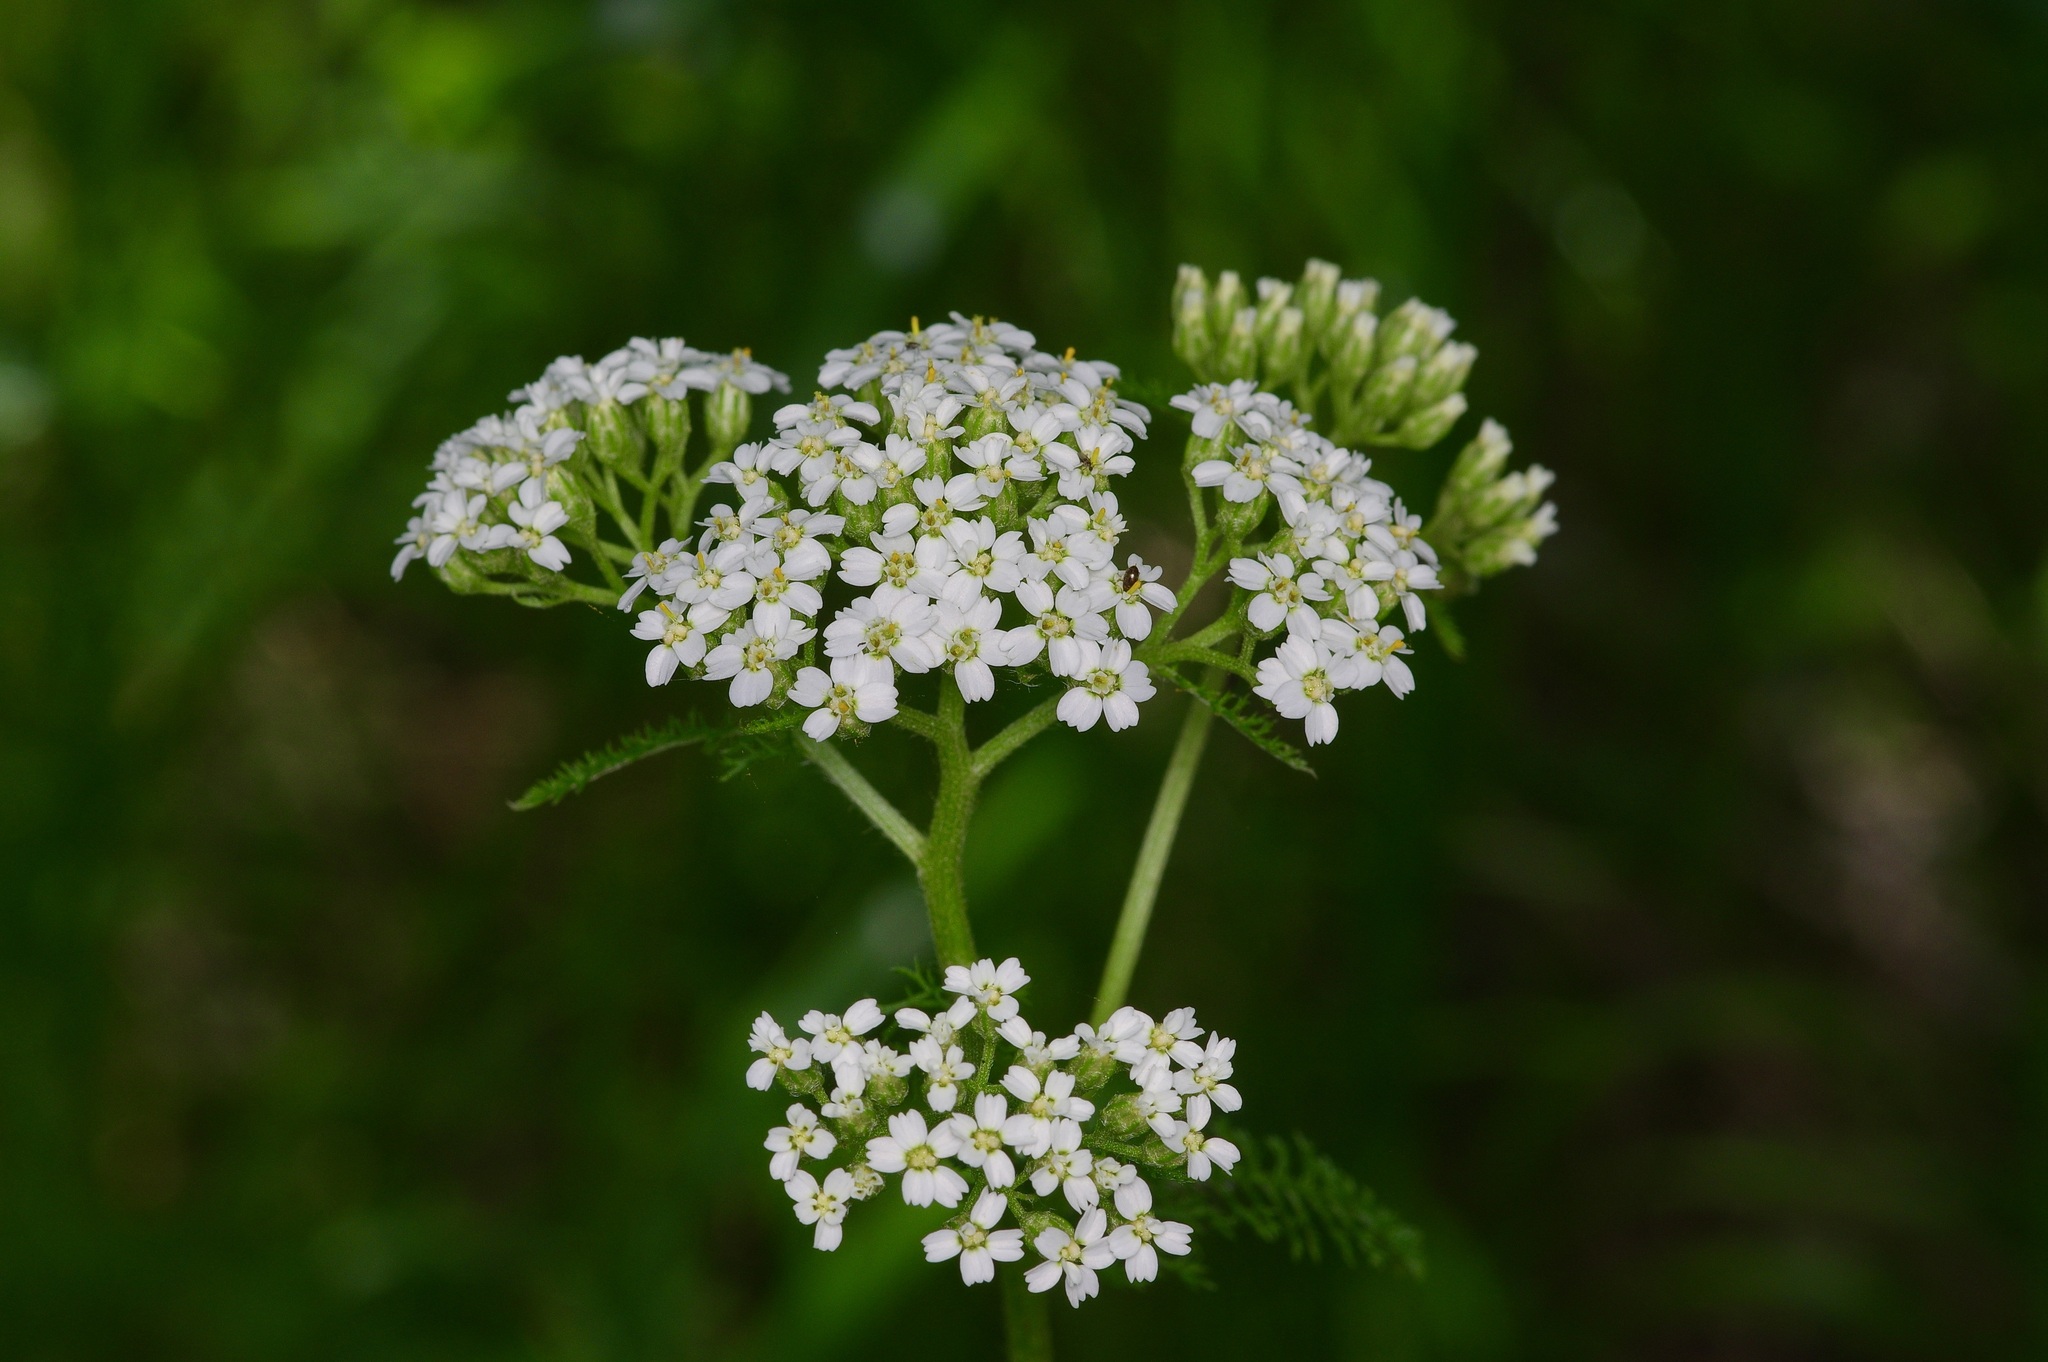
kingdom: Plantae
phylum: Tracheophyta
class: Magnoliopsida
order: Asterales
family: Asteraceae
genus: Achillea
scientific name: Achillea millefolium
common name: Yarrow
